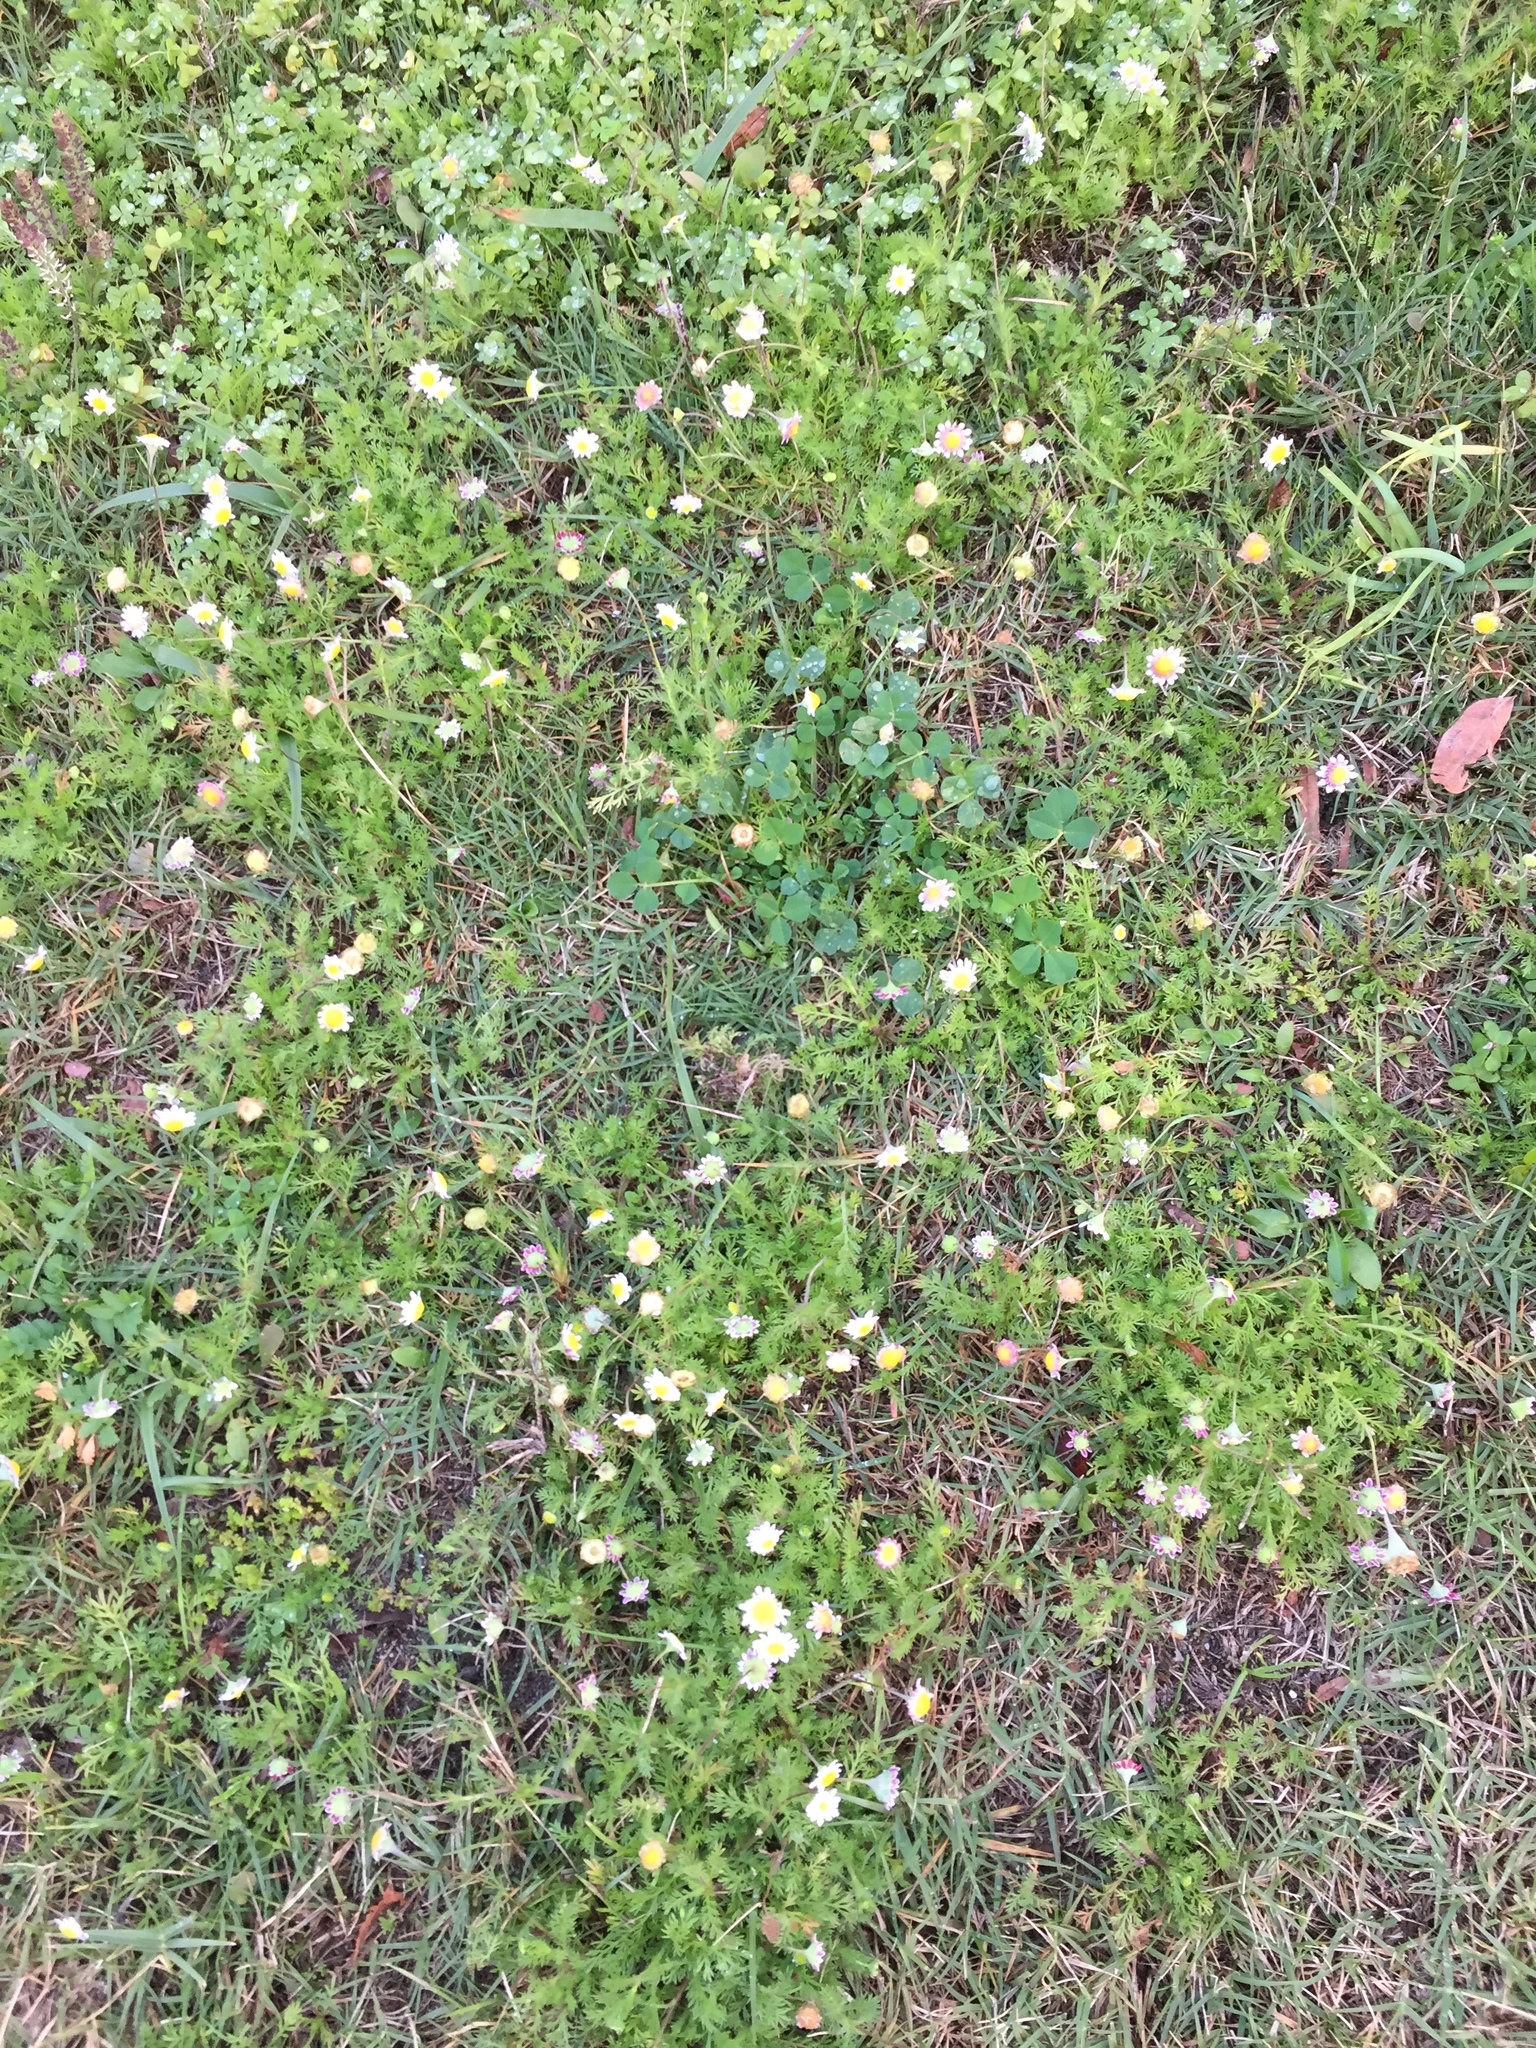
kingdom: Plantae
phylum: Tracheophyta
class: Magnoliopsida
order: Asterales
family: Asteraceae
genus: Cotula
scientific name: Cotula turbinata
